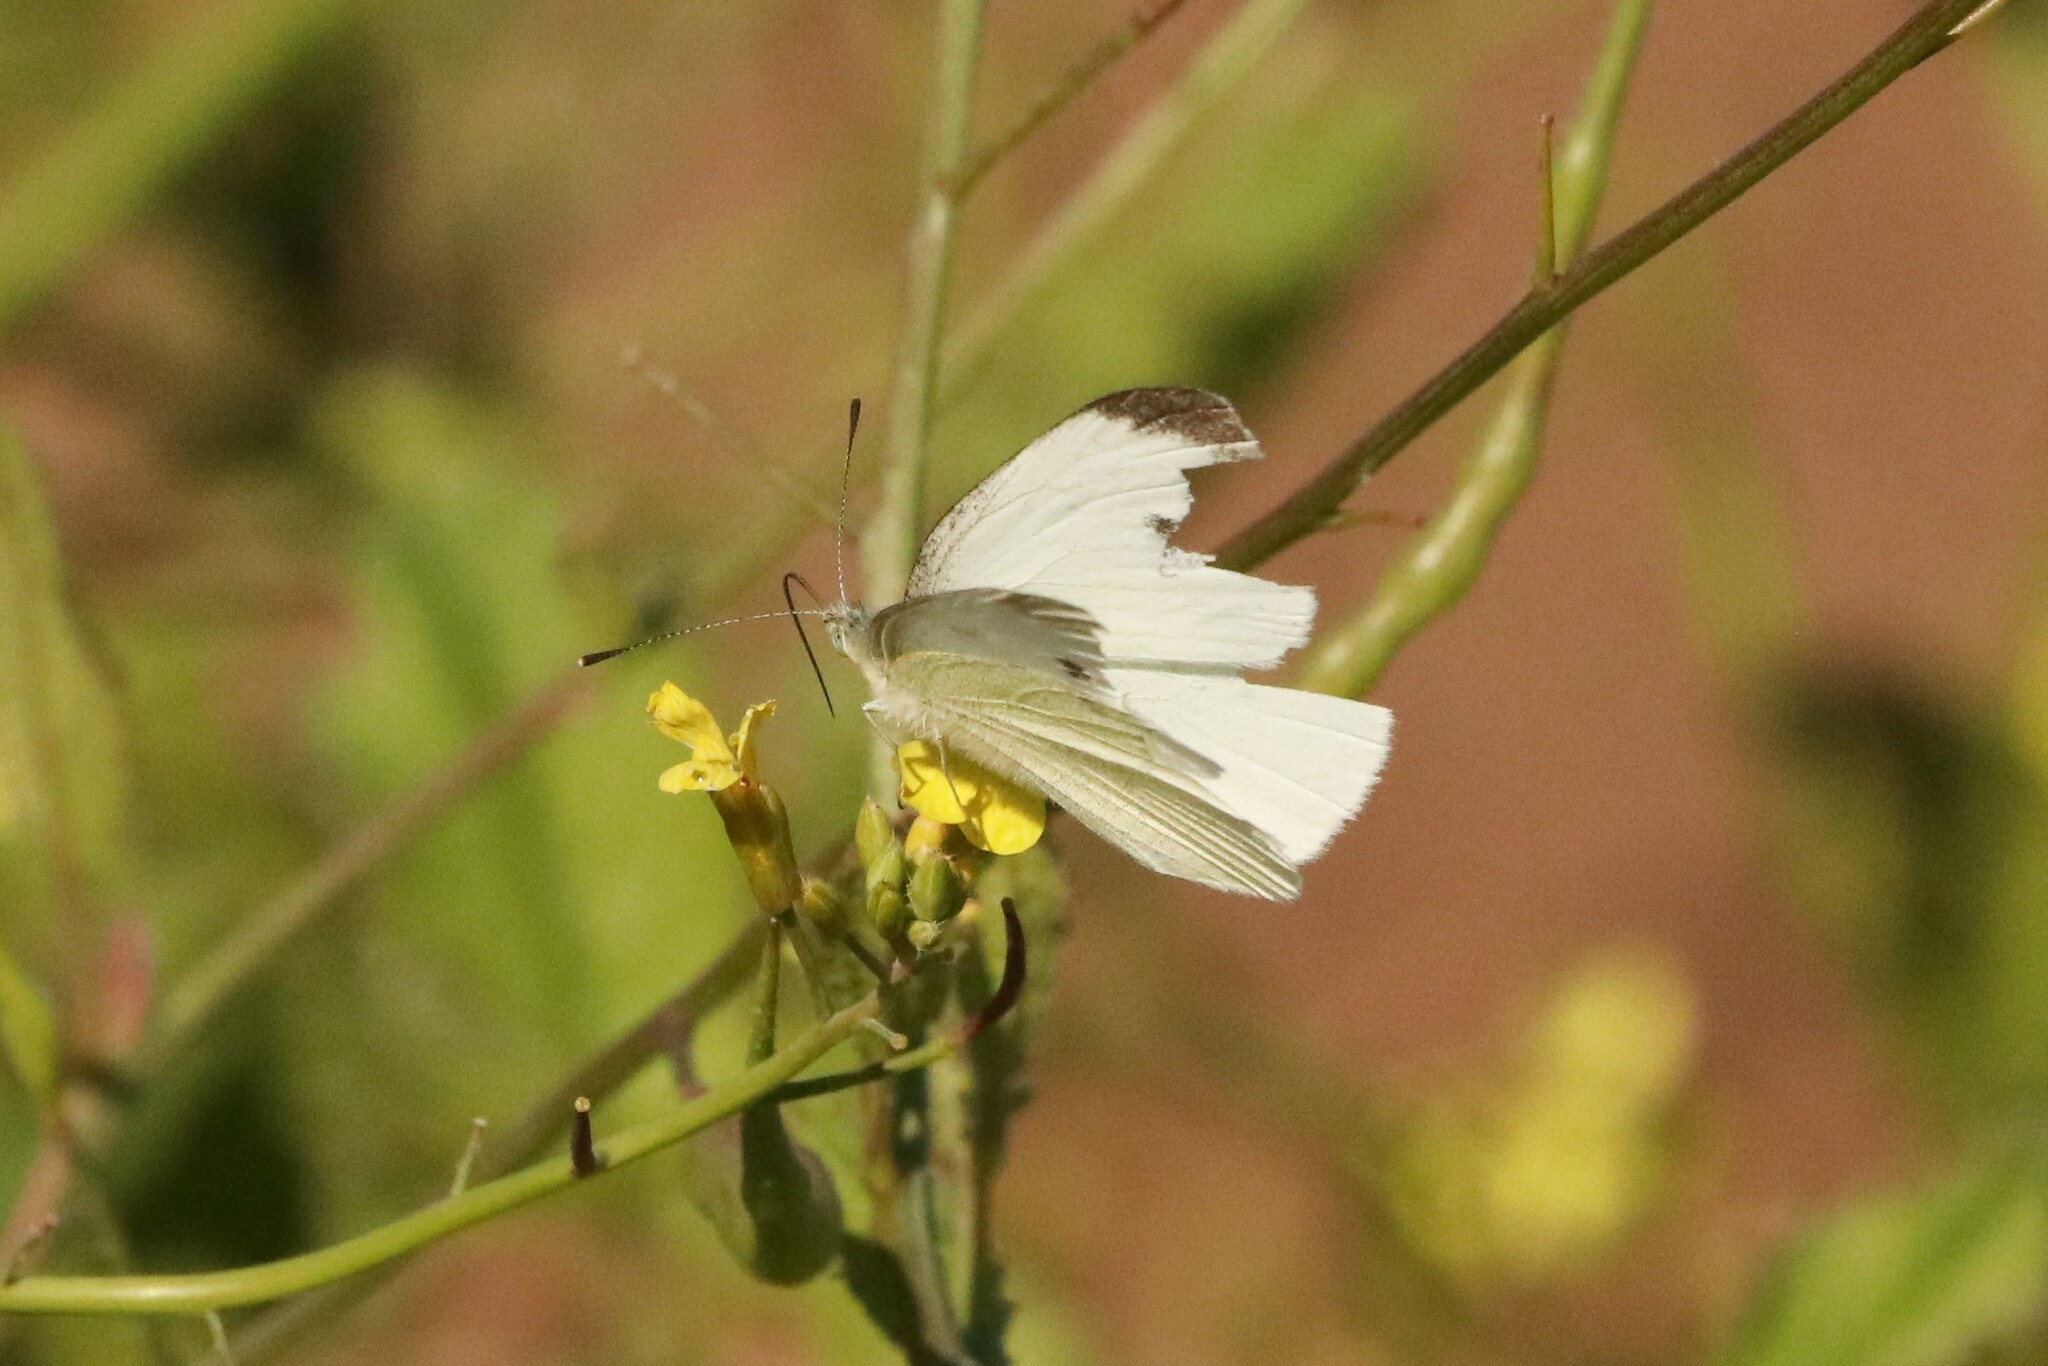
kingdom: Animalia
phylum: Arthropoda
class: Insecta
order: Lepidoptera
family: Pieridae
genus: Pieris
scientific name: Pieris rapae
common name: Small white
